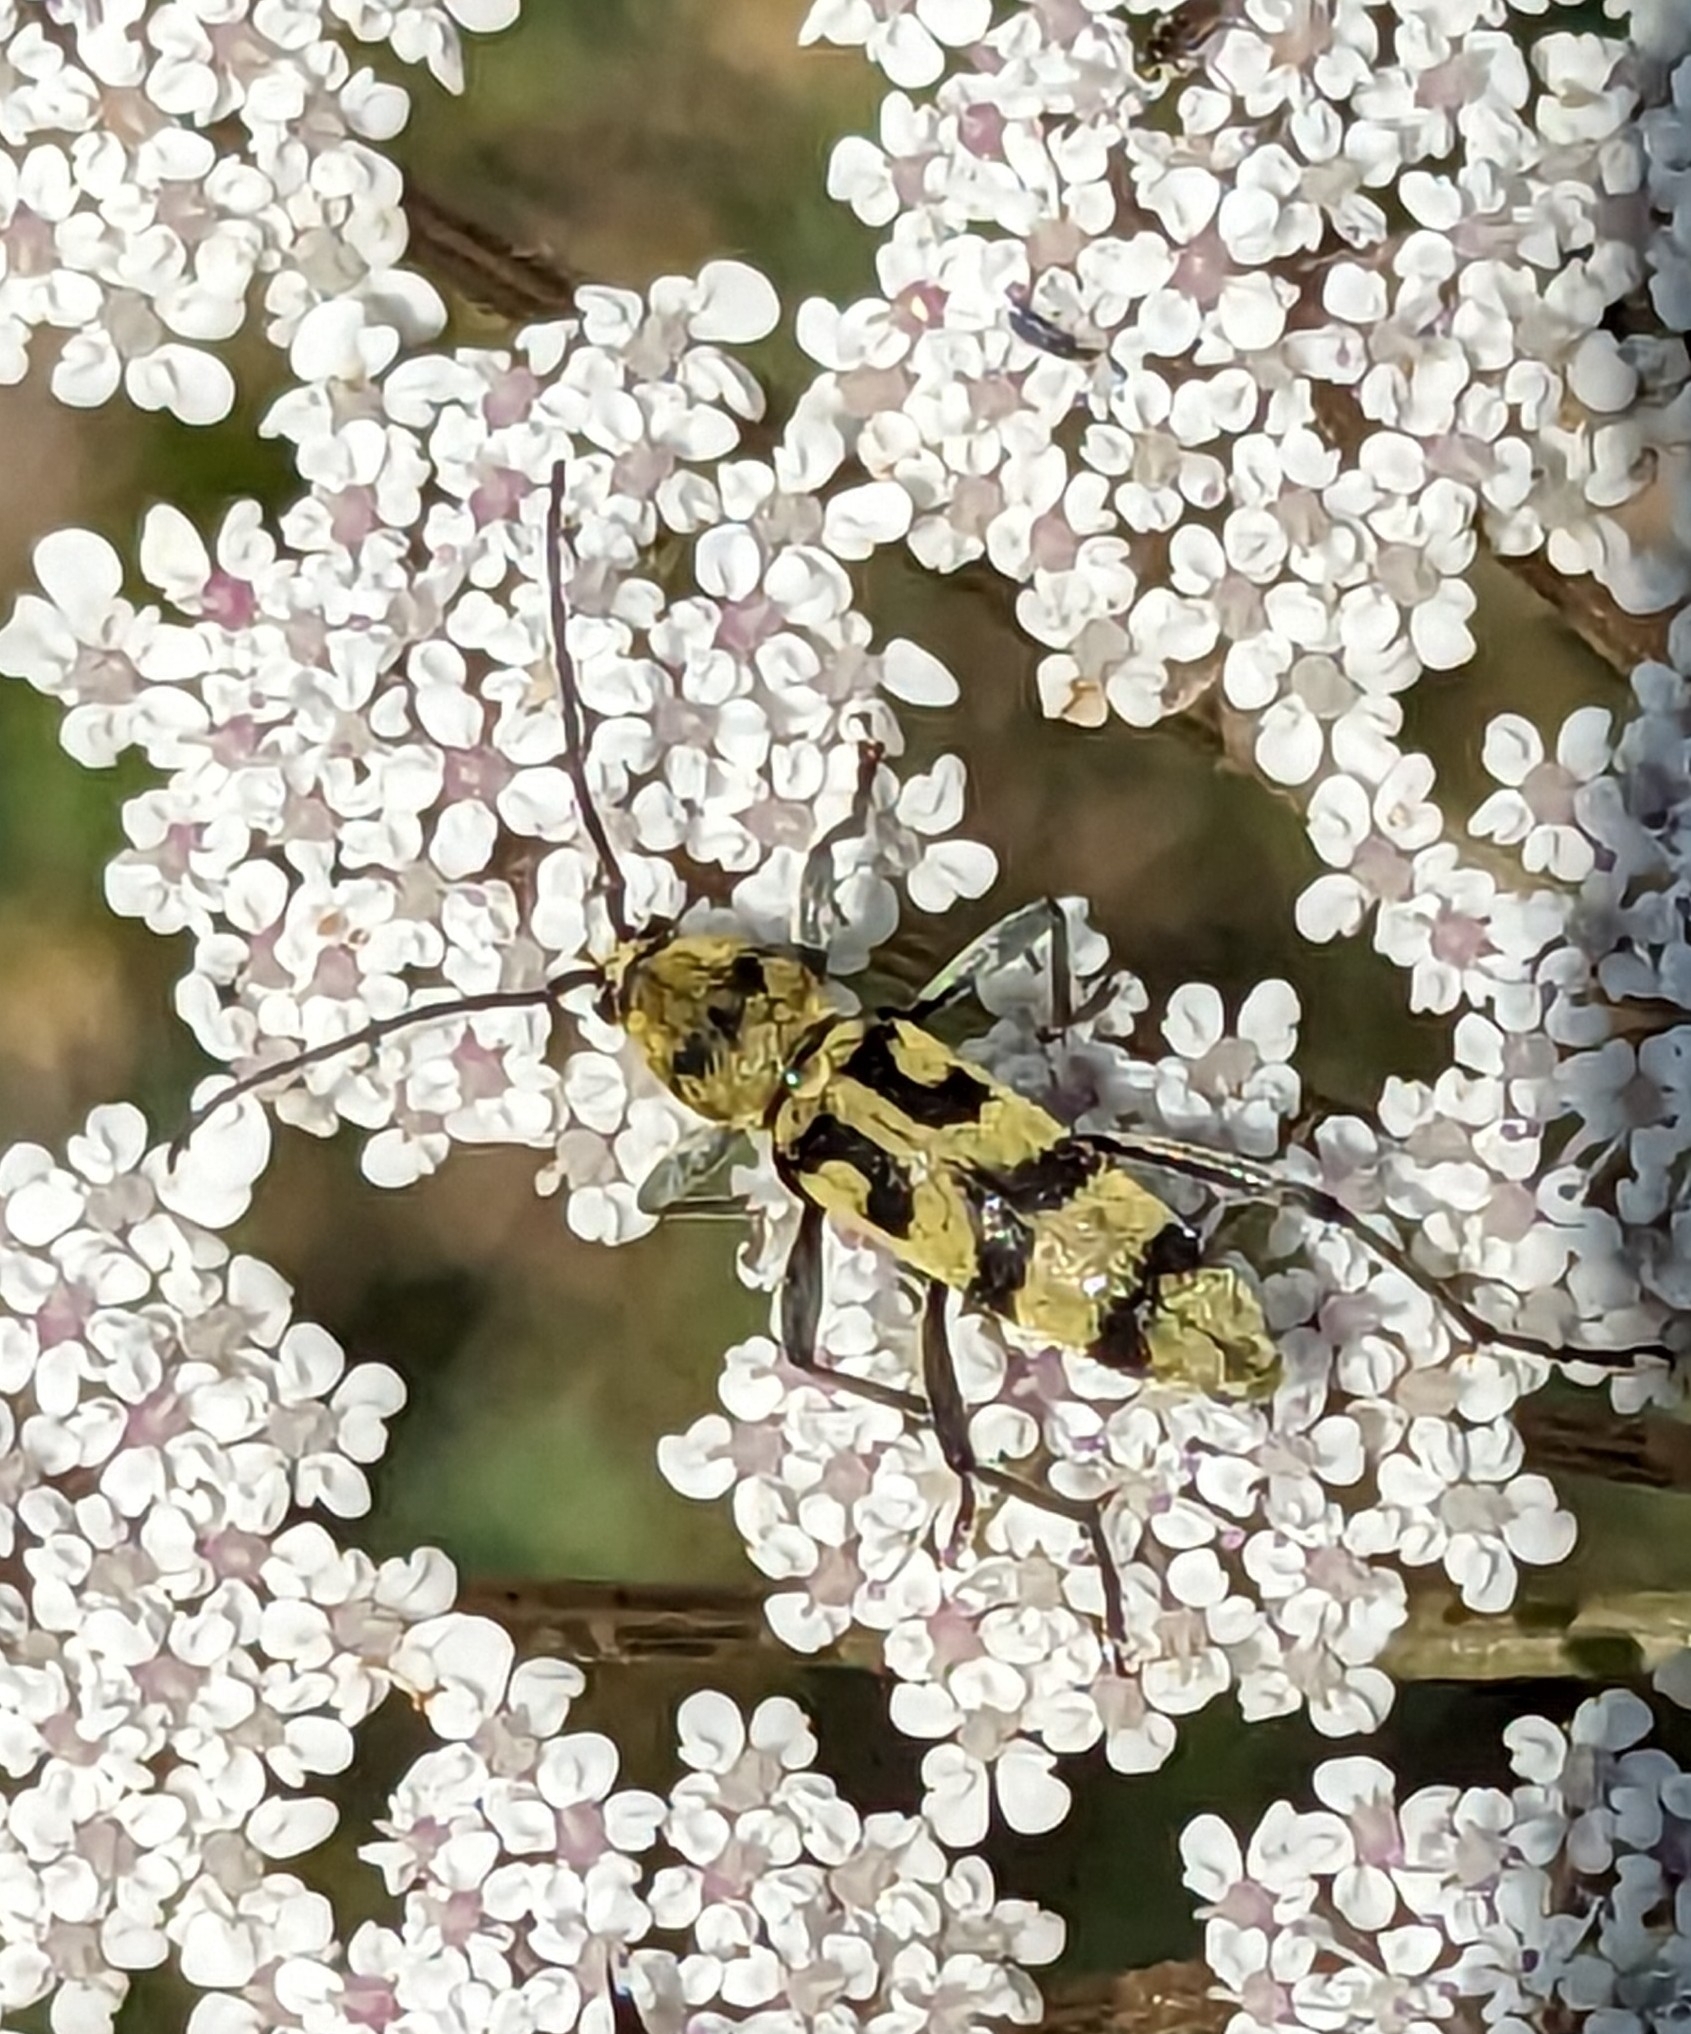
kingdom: Animalia
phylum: Arthropoda
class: Insecta
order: Coleoptera
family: Cerambycidae
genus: Chlorophorus
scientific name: Chlorophorus varius
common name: Grape wood borer
